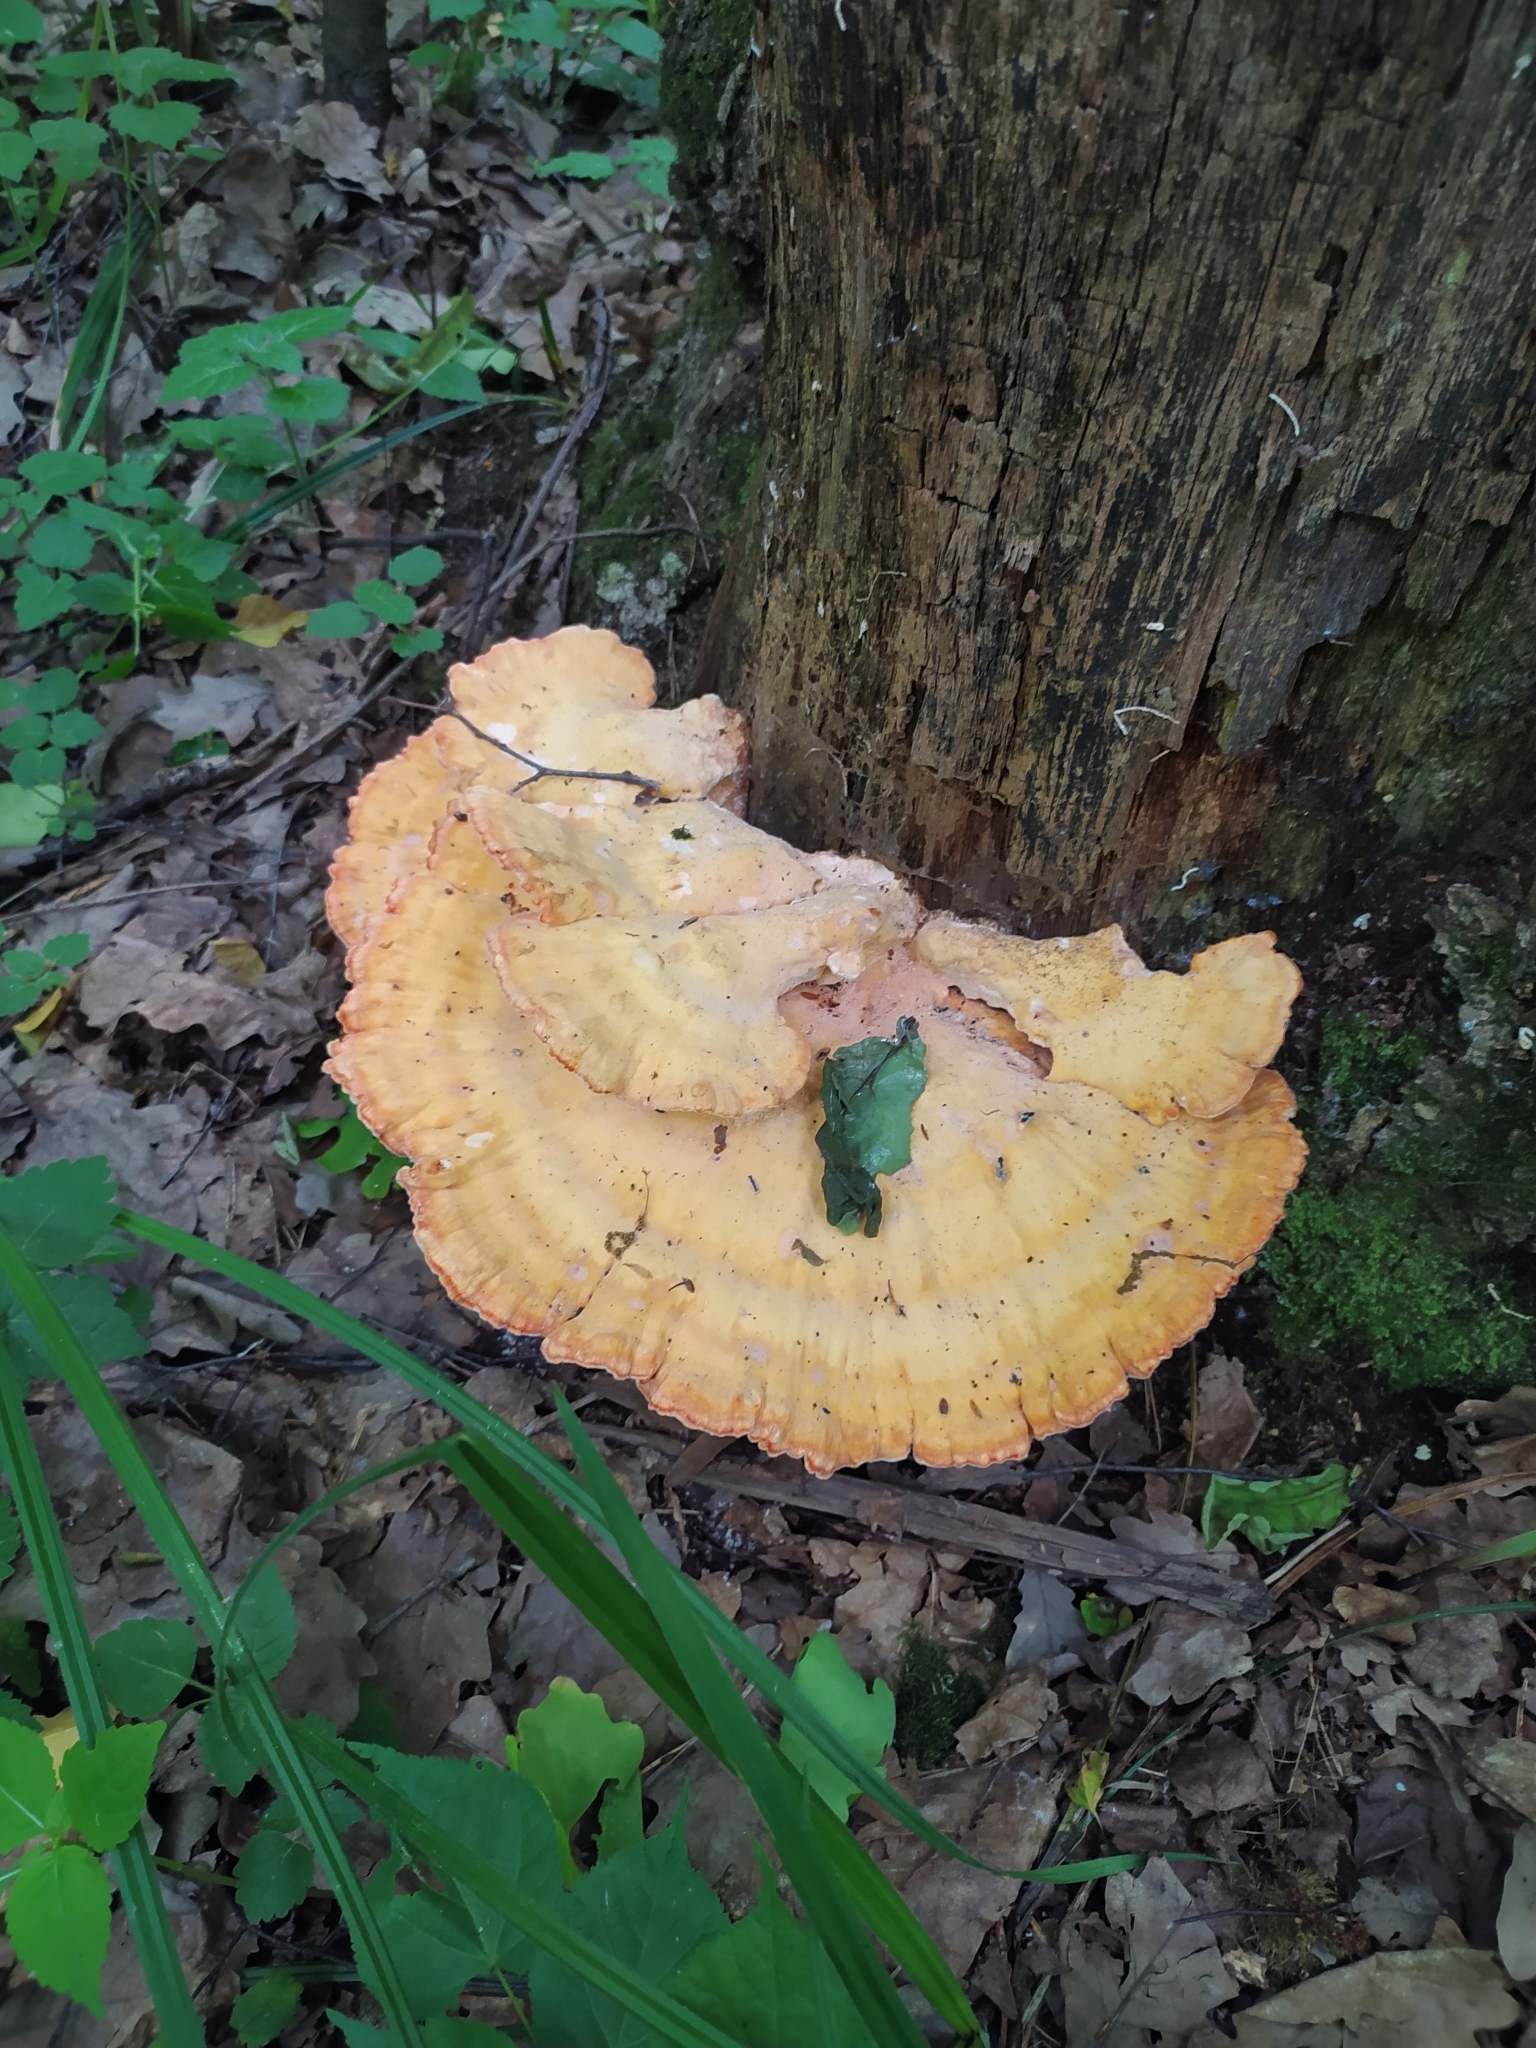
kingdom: Fungi
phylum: Basidiomycota
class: Agaricomycetes
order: Polyporales
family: Laetiporaceae
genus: Laetiporus
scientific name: Laetiporus sulphureus
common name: Chicken of the woods
